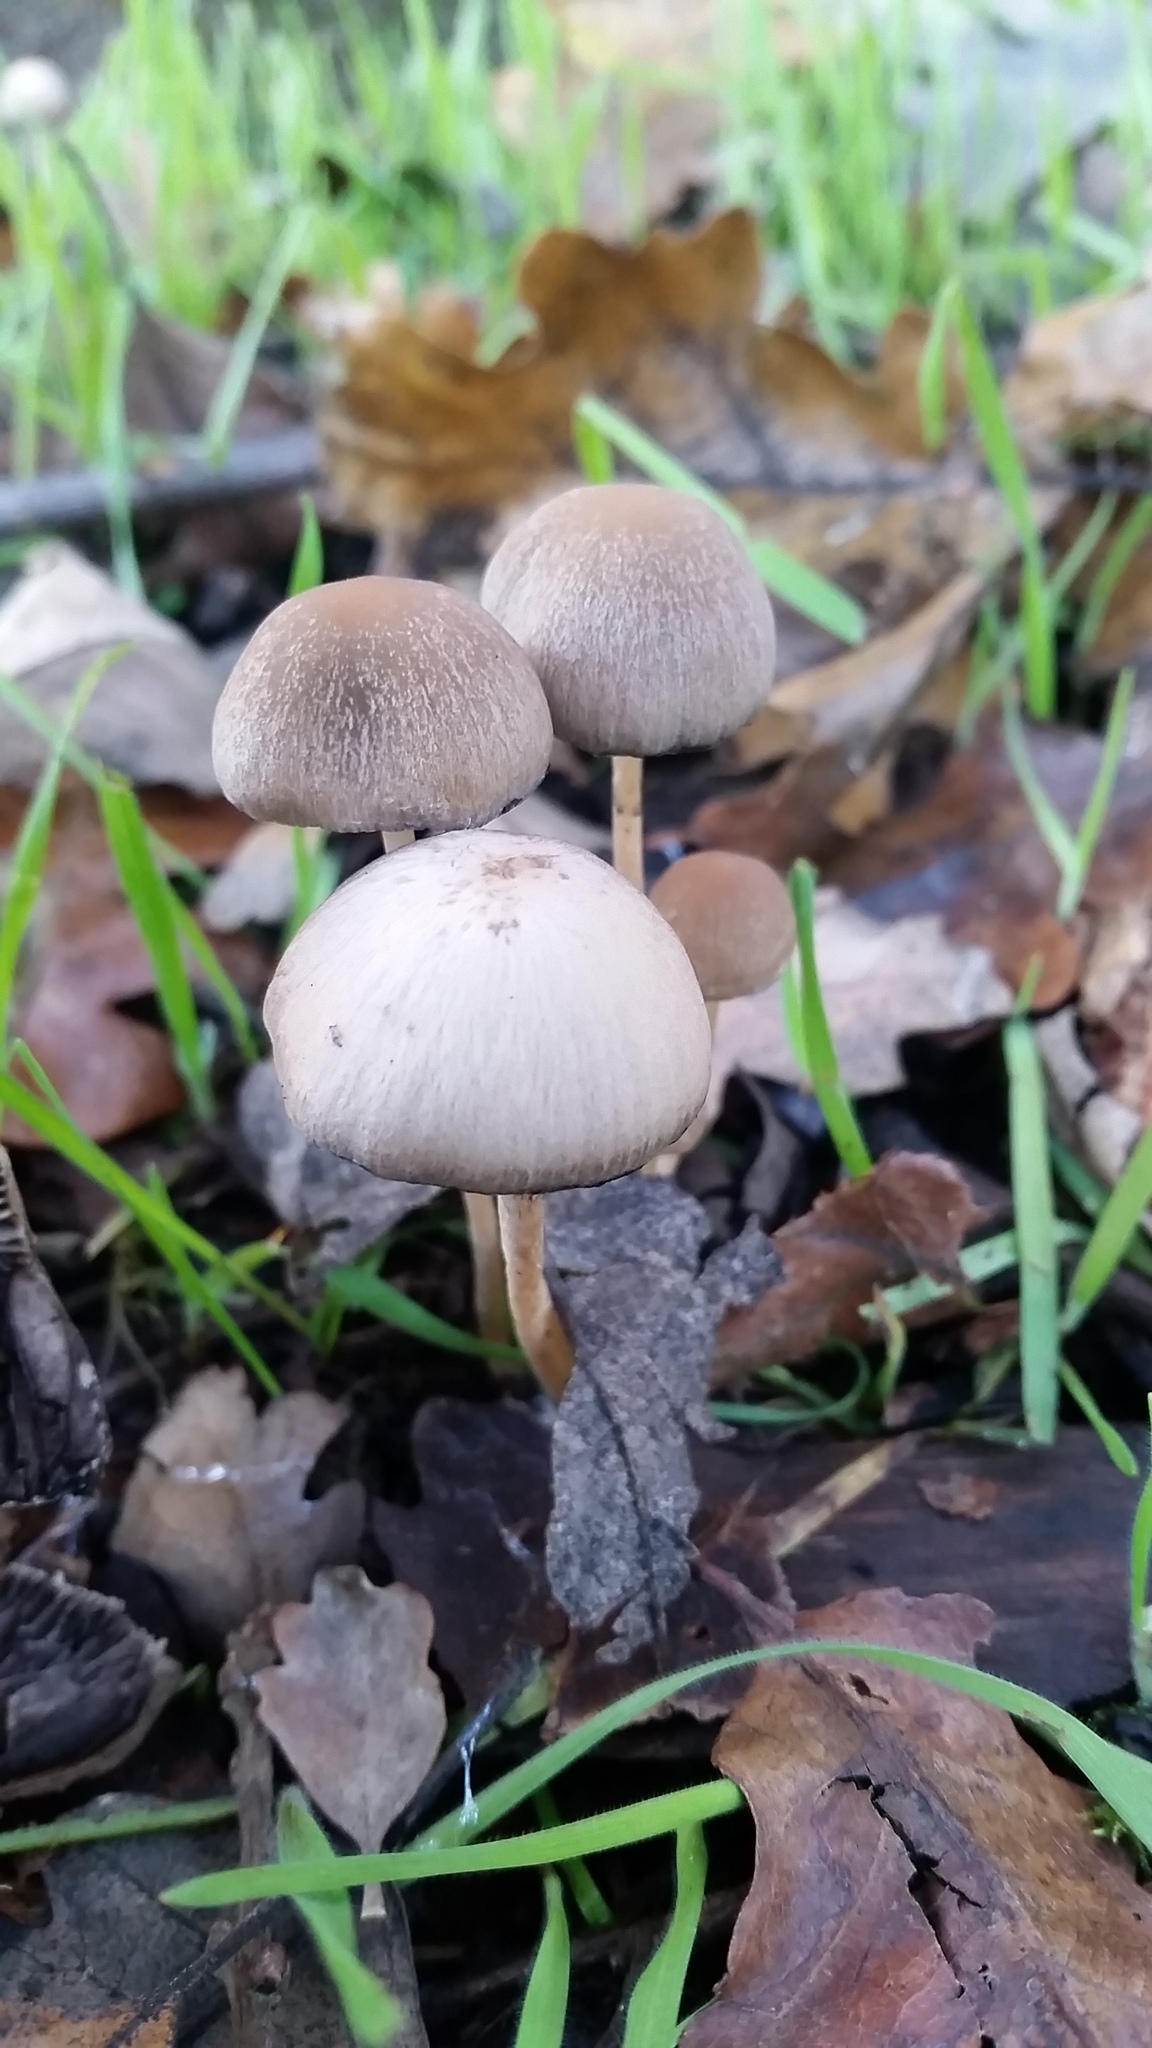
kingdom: Fungi
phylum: Basidiomycota
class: Agaricomycetes
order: Agaricales
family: Psathyrellaceae
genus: Psathyrella
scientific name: Psathyrella corrugis
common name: Red edge brittlestem
